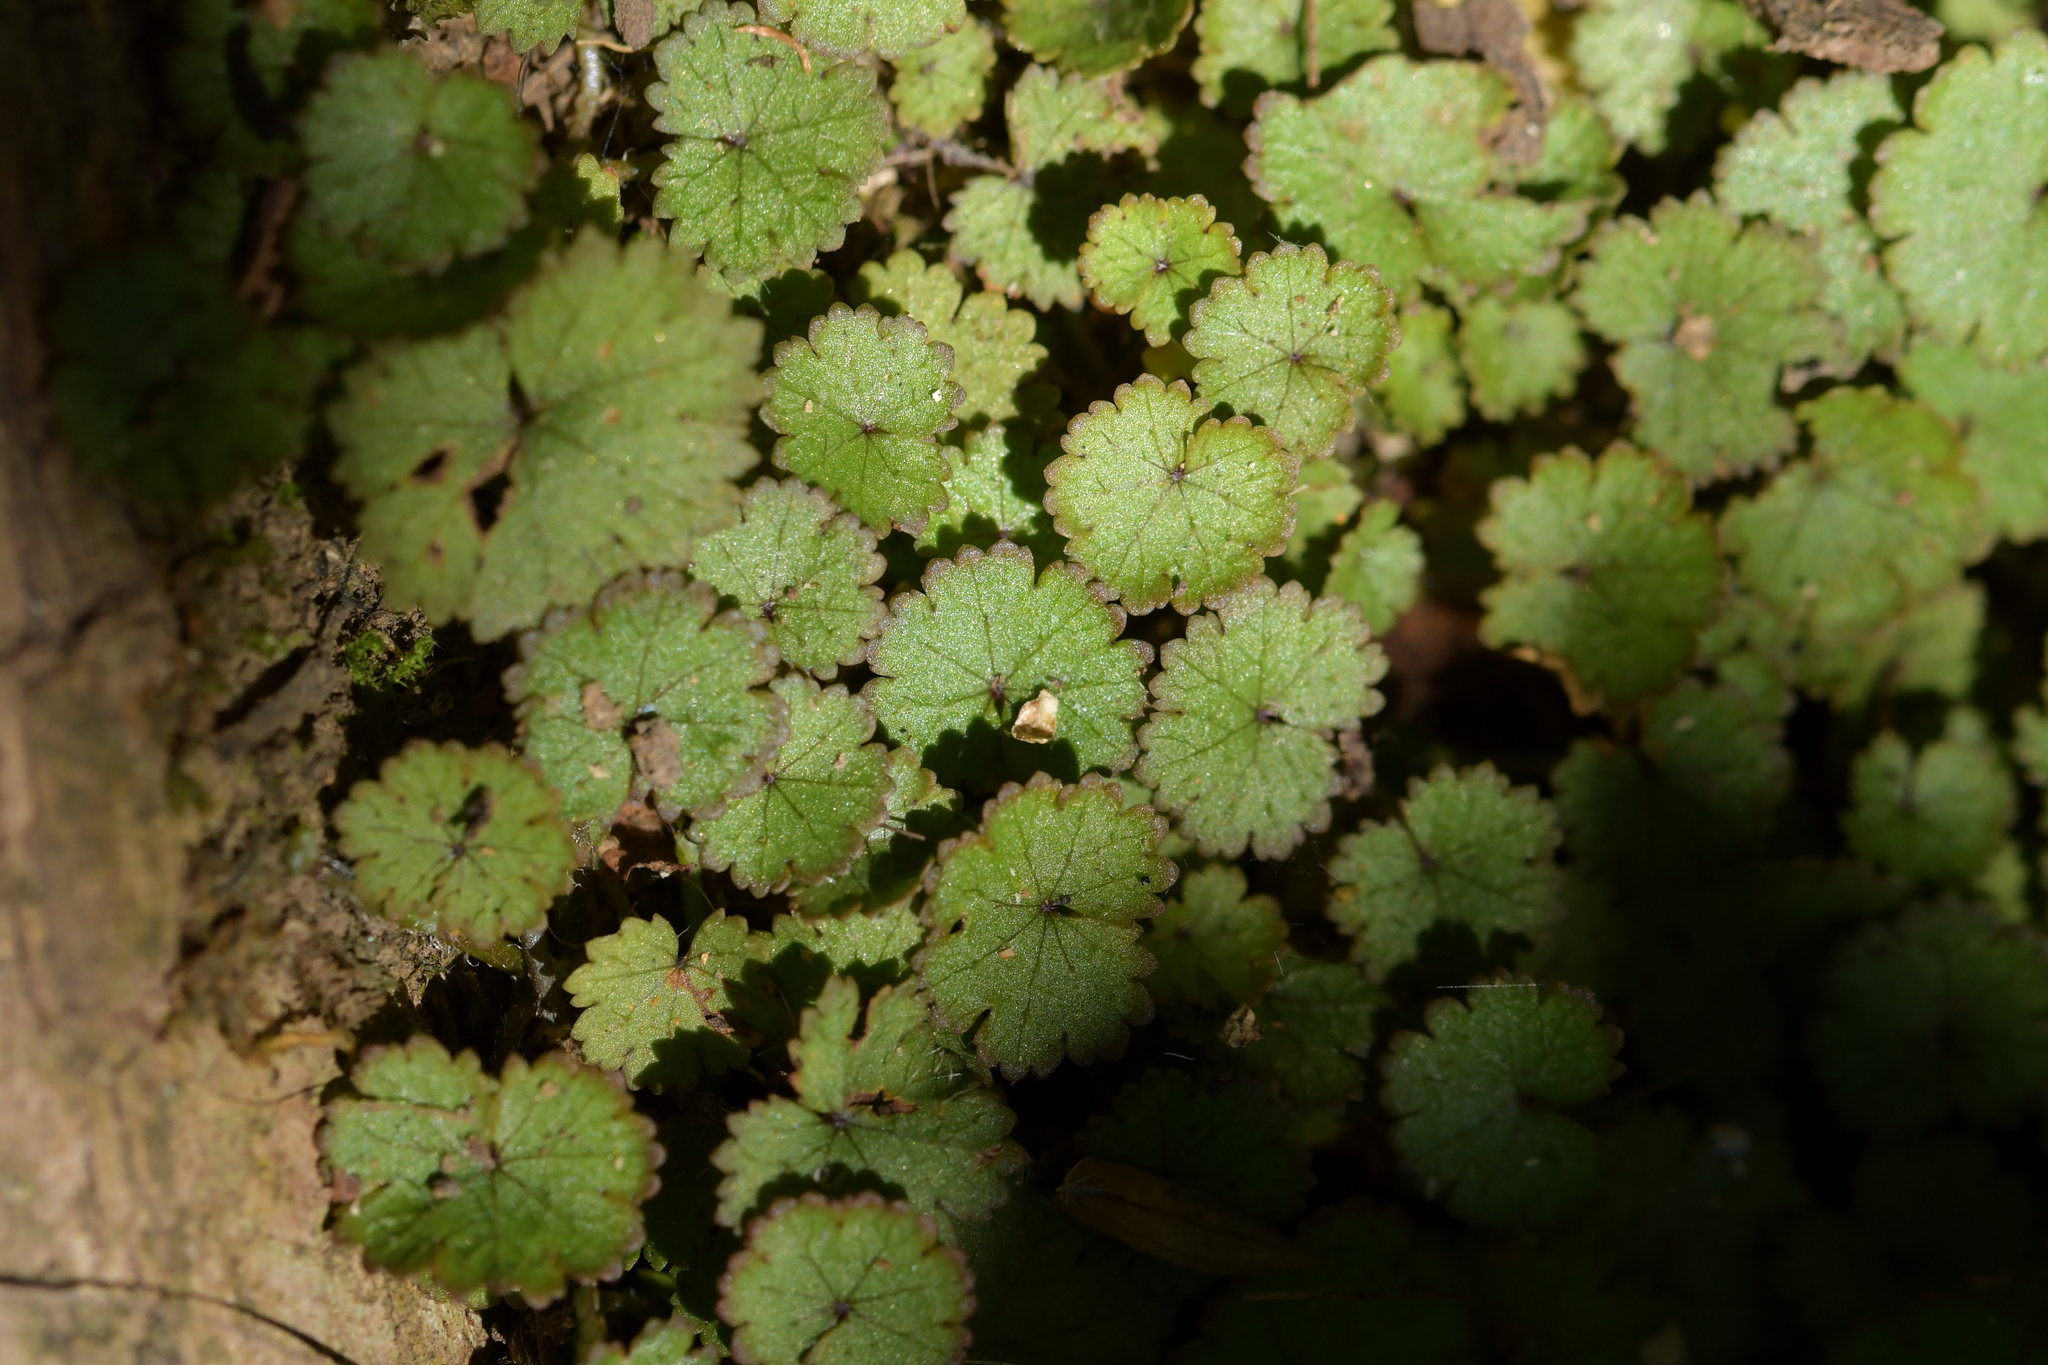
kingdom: Plantae
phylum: Tracheophyta
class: Magnoliopsida
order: Apiales
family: Araliaceae
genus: Hydrocotyle
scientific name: Hydrocotyle moschata
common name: Hairy pennywort
